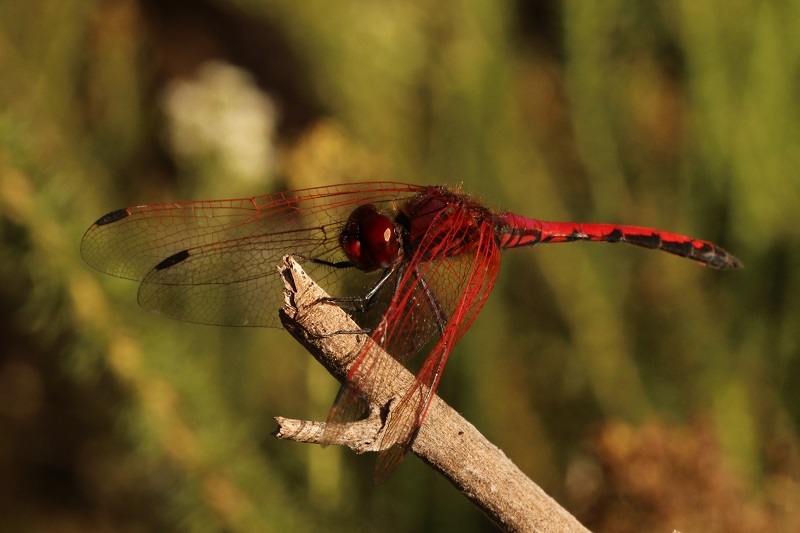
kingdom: Animalia
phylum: Arthropoda
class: Insecta
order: Odonata
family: Libellulidae
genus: Trithemis
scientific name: Trithemis arteriosa
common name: Red-veined dropwing
